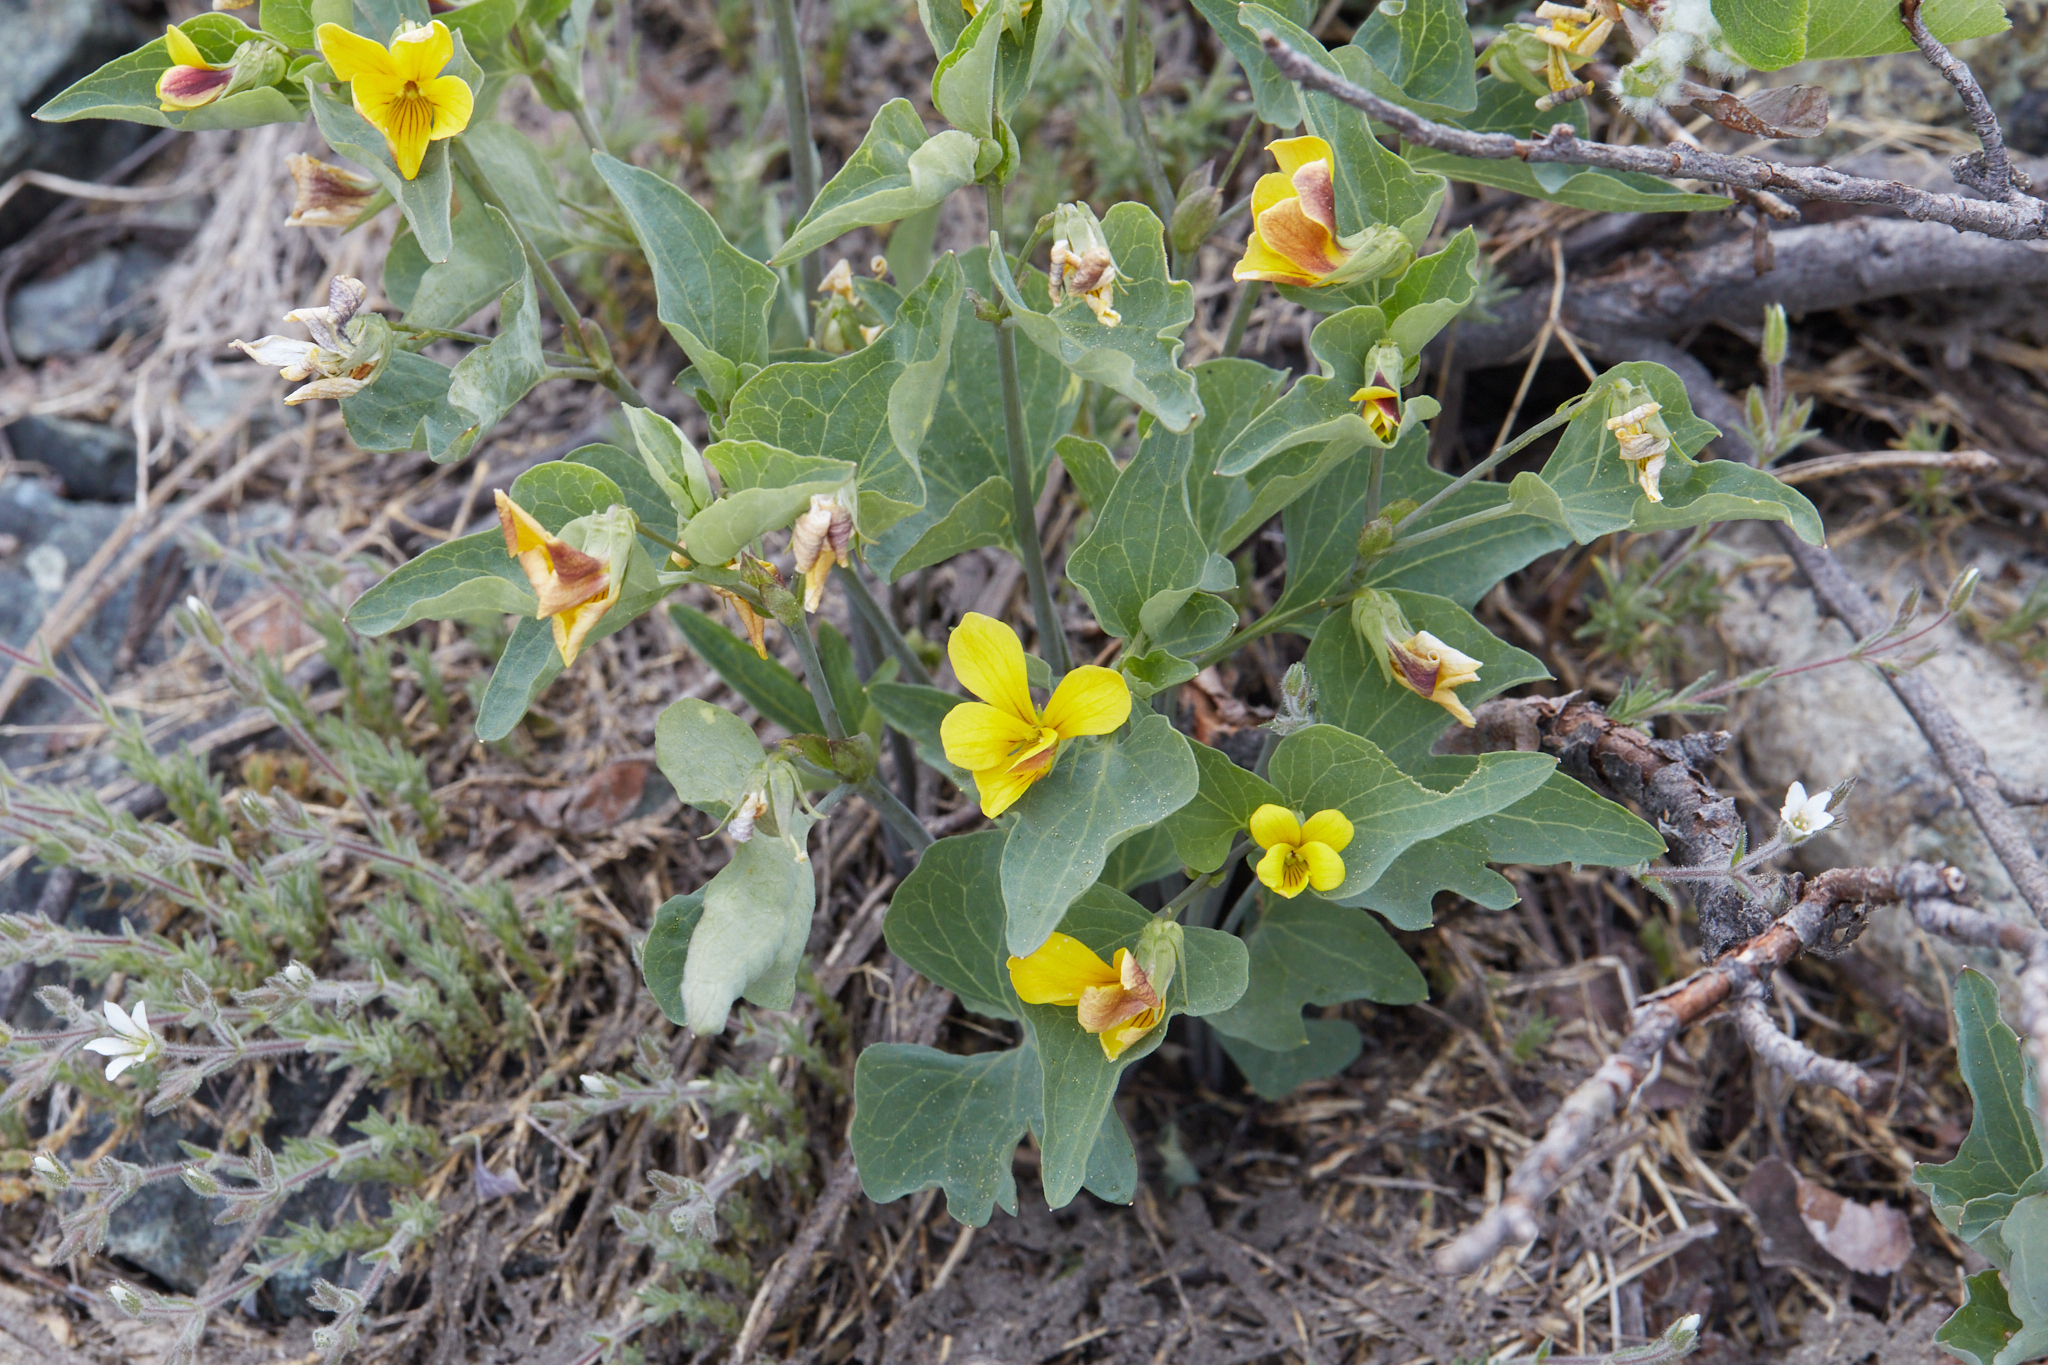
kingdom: Plantae
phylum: Tracheophyta
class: Magnoliopsida
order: Malpighiales
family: Violaceae
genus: Viola
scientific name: Viola lobata
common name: Pine violet
